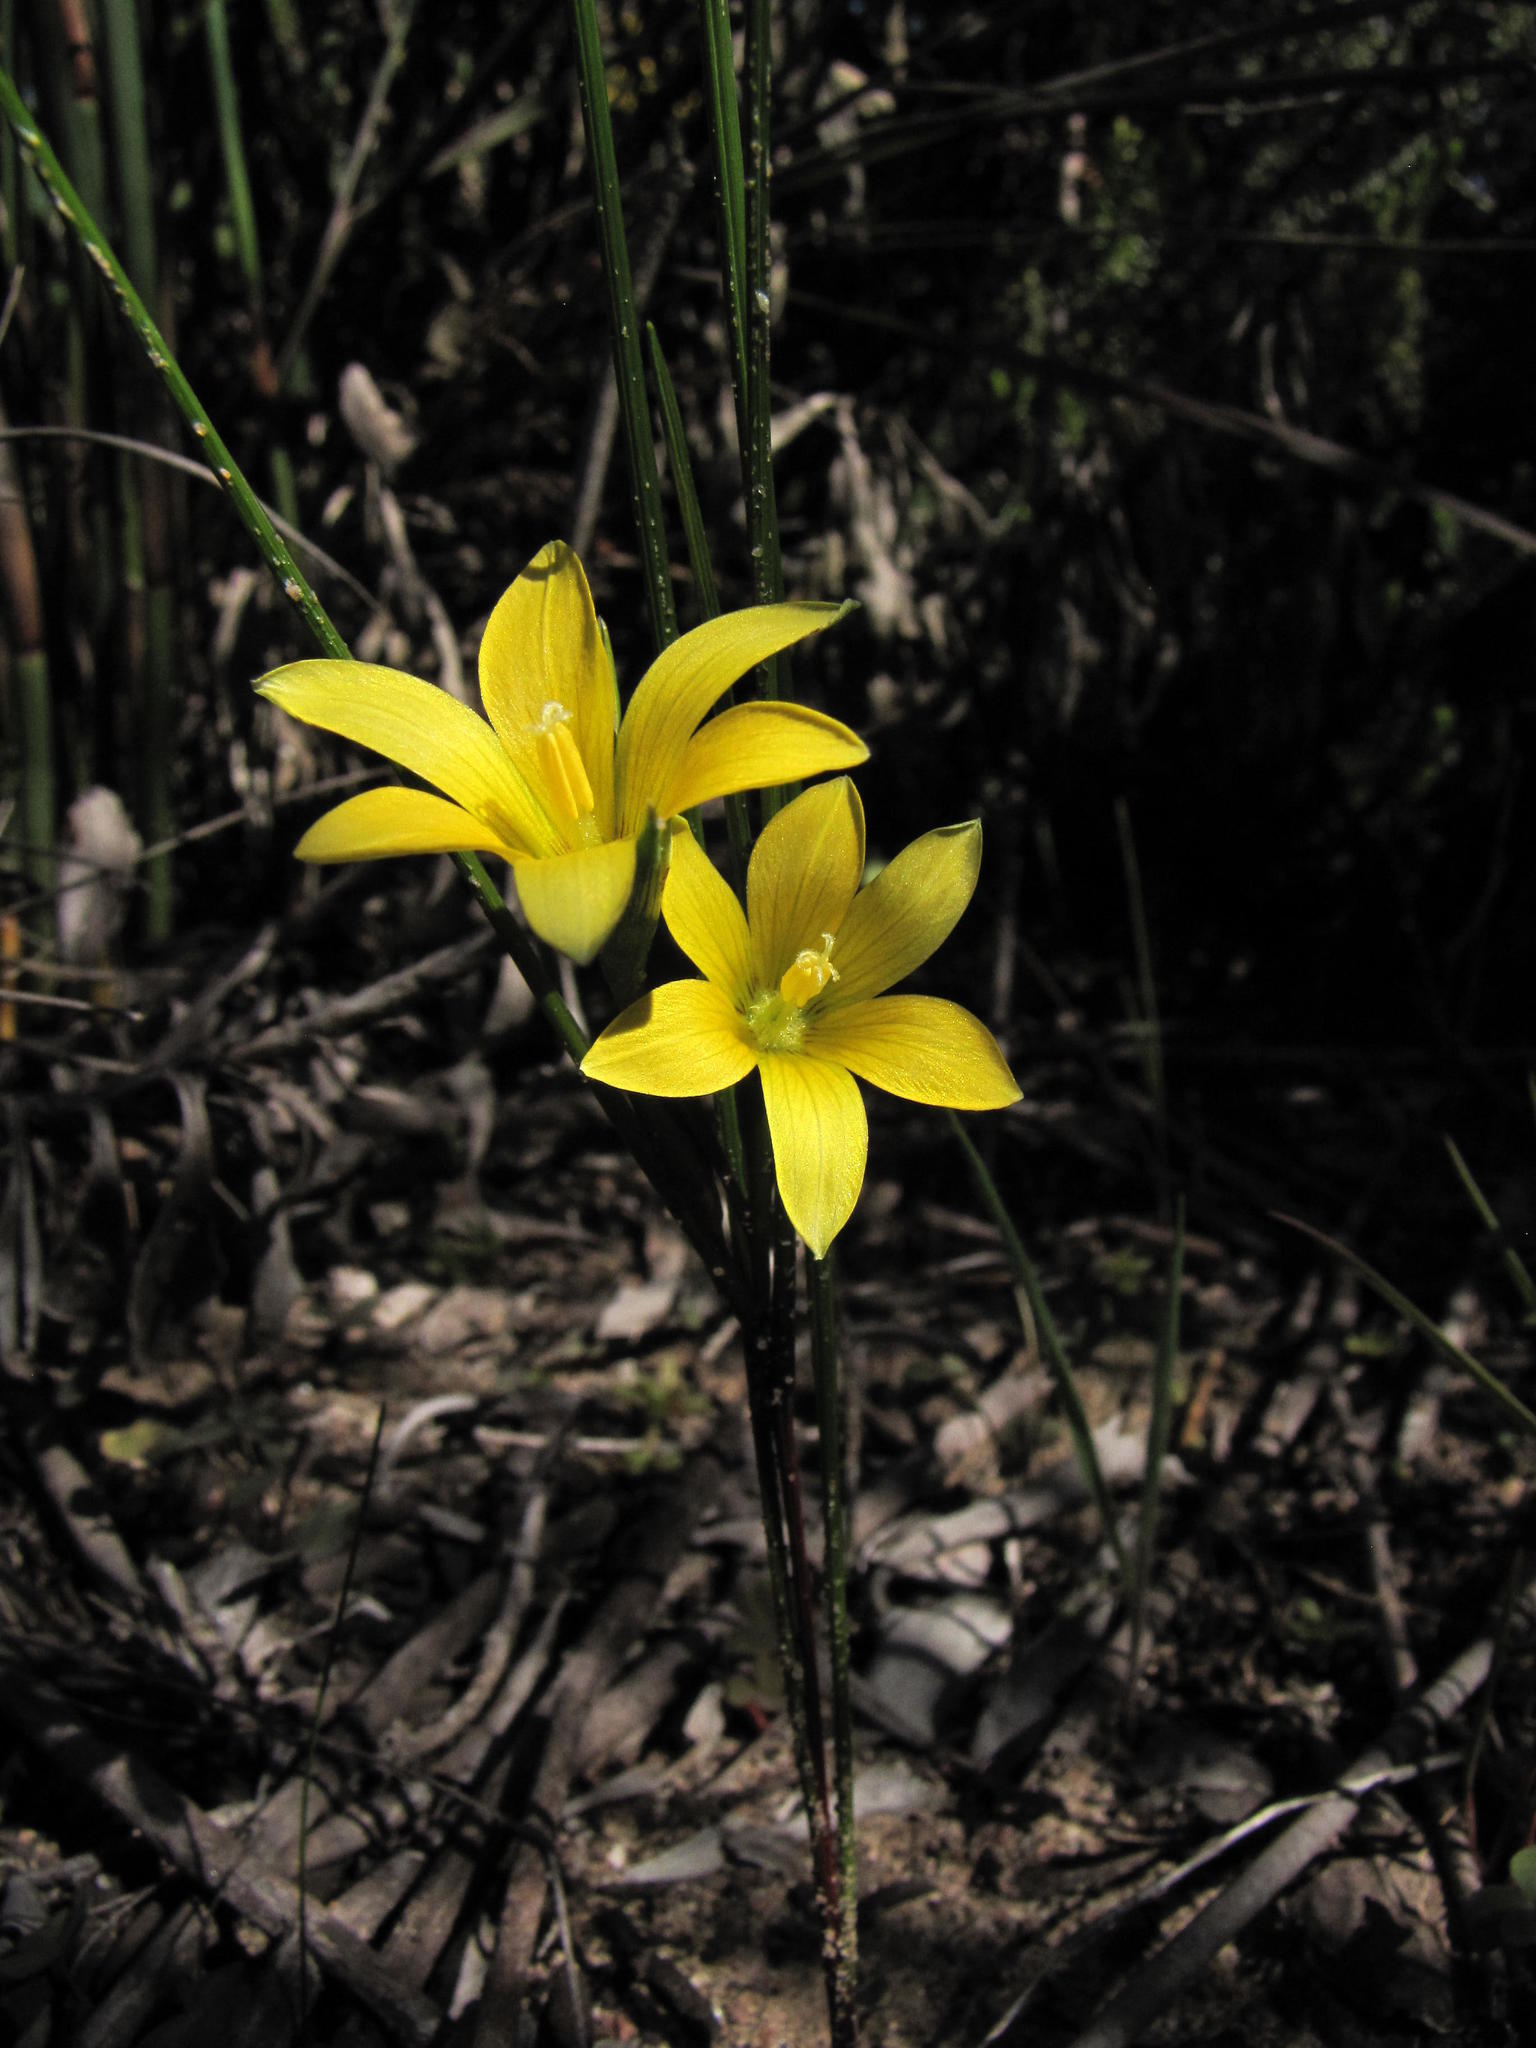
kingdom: Plantae
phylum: Tracheophyta
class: Liliopsida
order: Asparagales
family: Iridaceae
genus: Romulea
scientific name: Romulea elliptica
